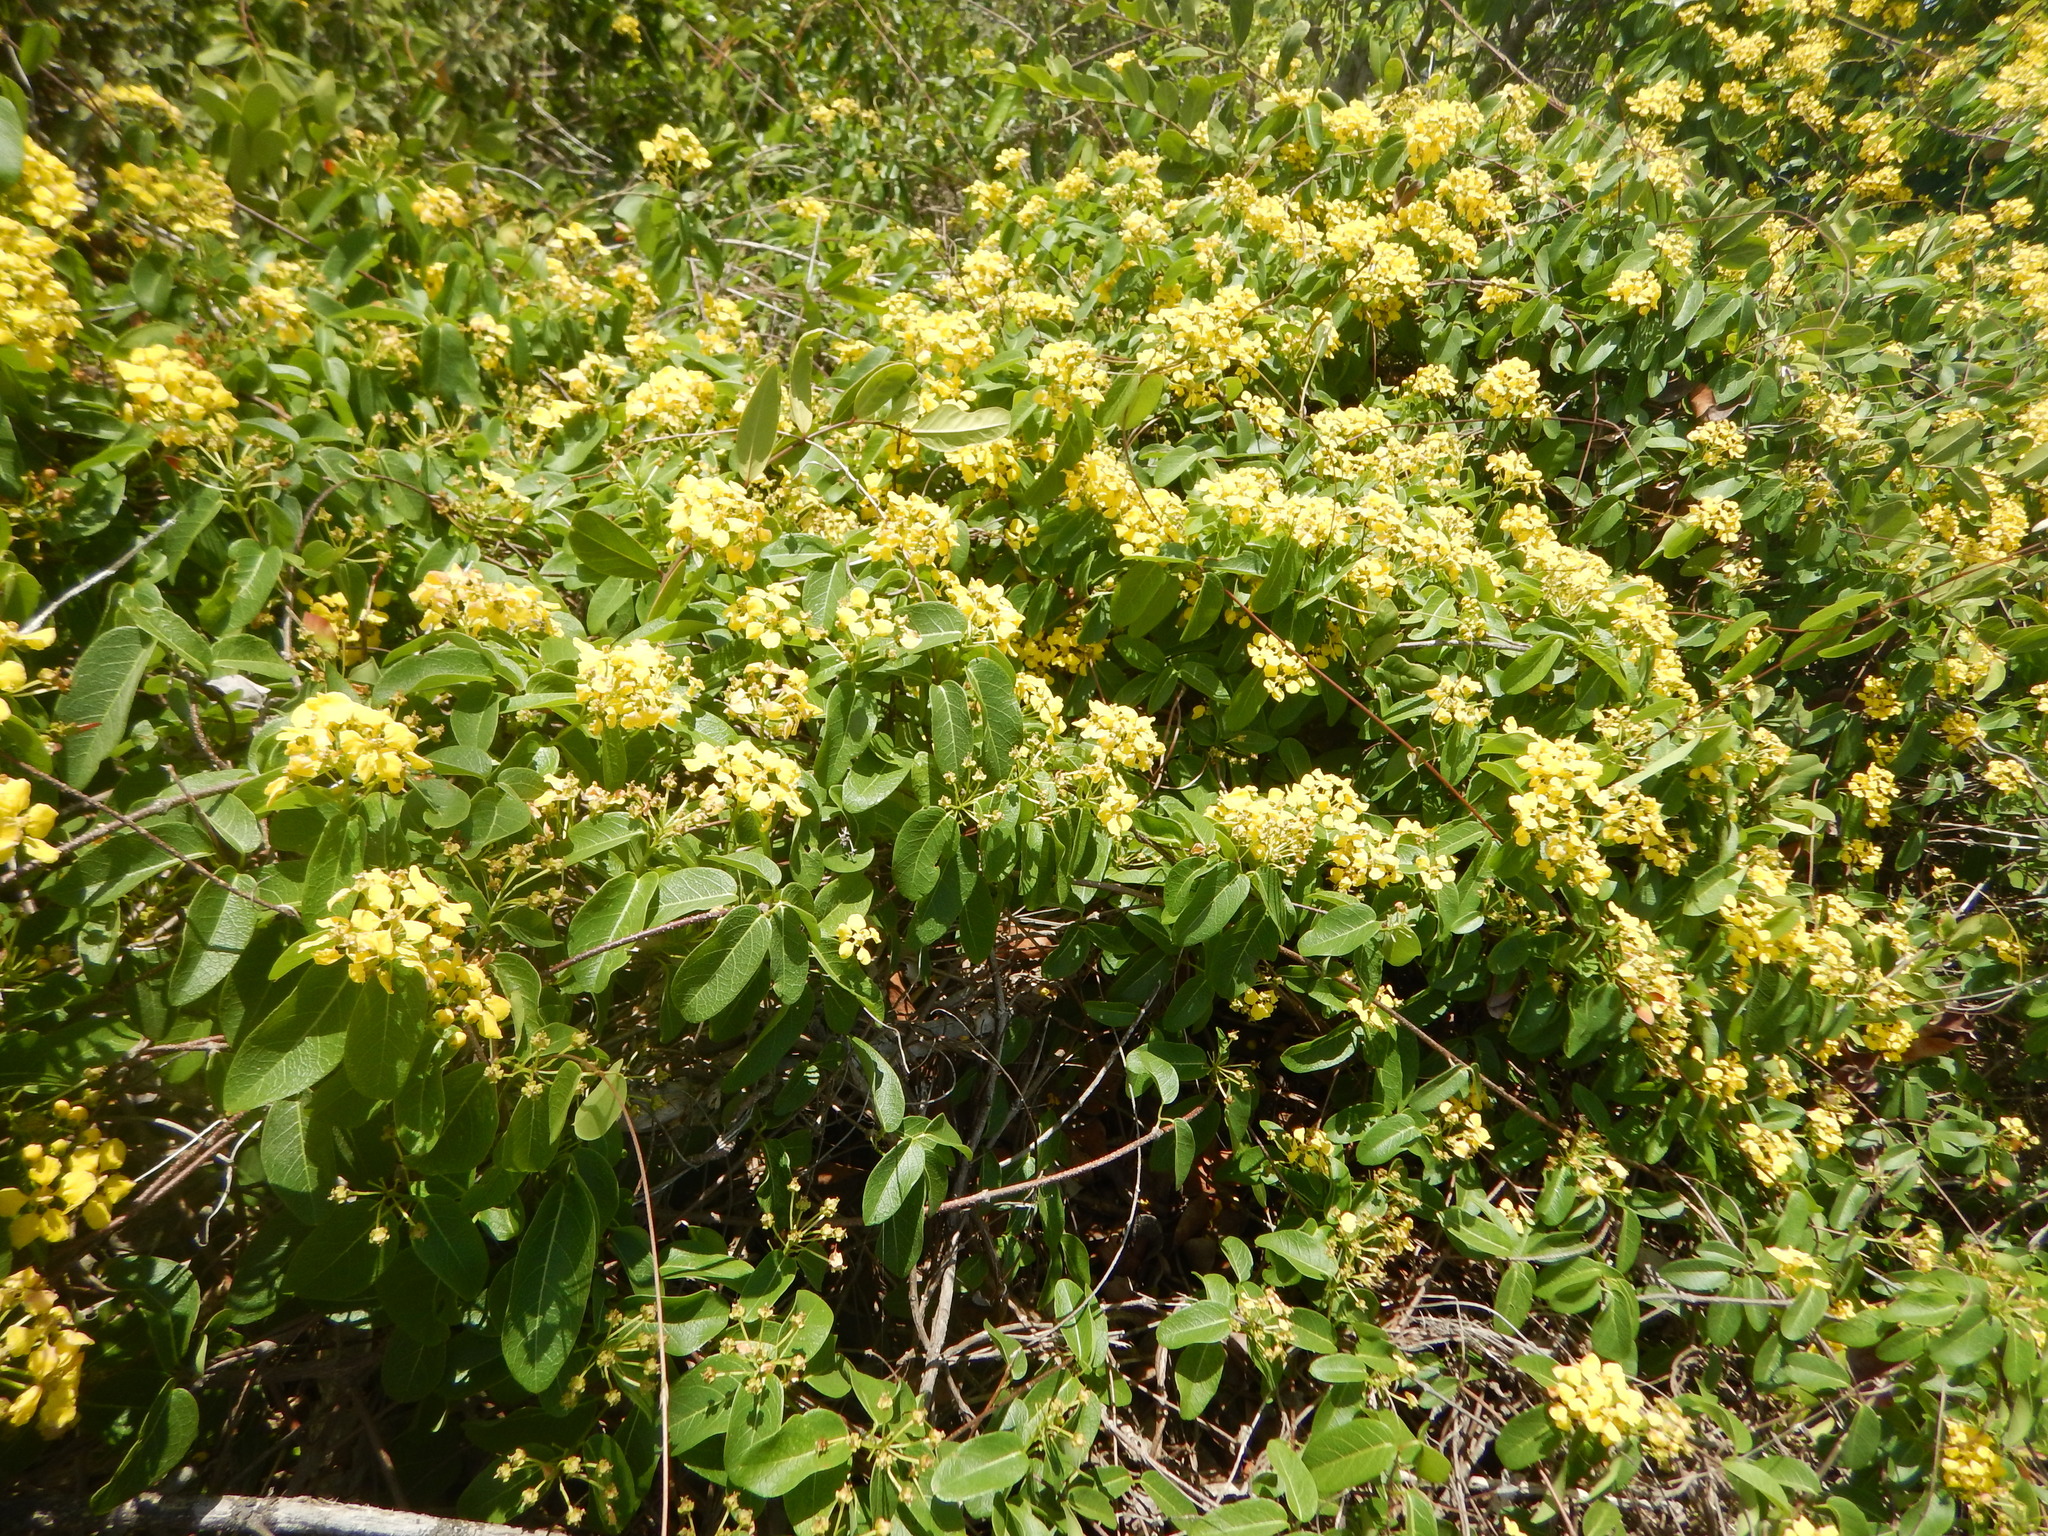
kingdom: Plantae
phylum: Tracheophyta
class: Magnoliopsida
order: Malpighiales
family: Malpighiaceae
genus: Stigmaphyllon
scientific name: Stigmaphyllon emarginatum
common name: Monarch amazonvine
